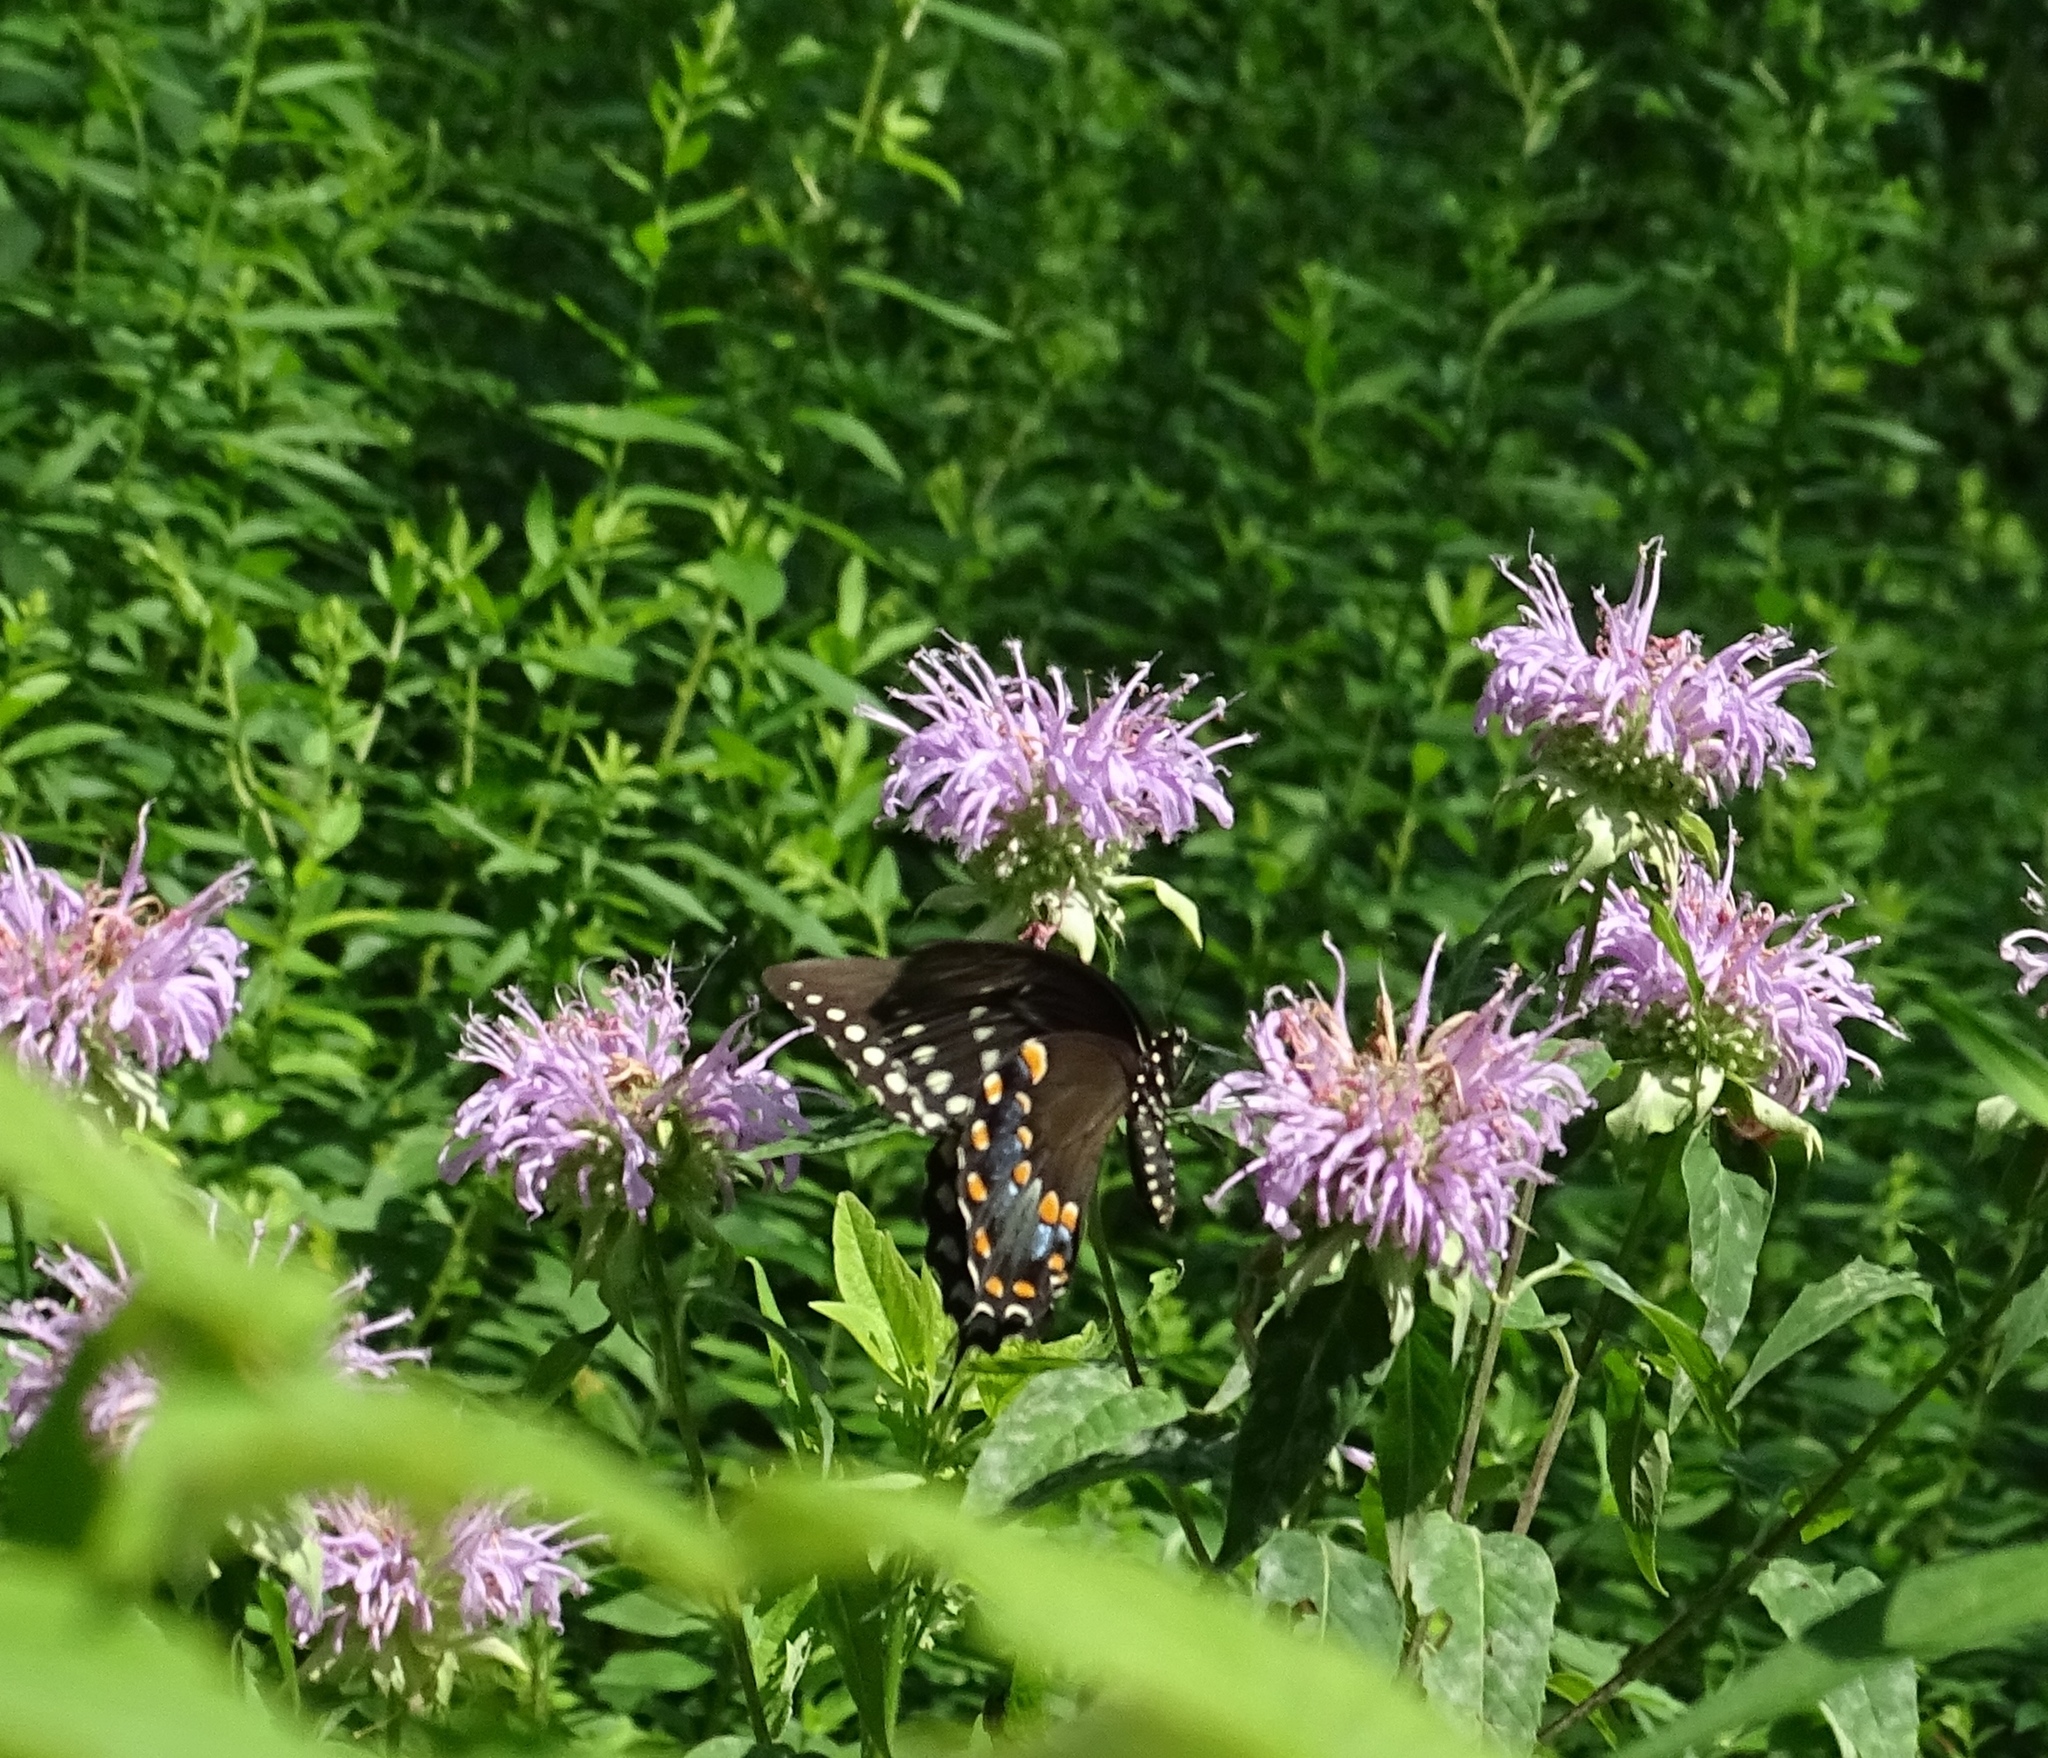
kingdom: Animalia
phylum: Arthropoda
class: Insecta
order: Lepidoptera
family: Papilionidae
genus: Papilio
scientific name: Papilio troilus
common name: Spicebush swallowtail
